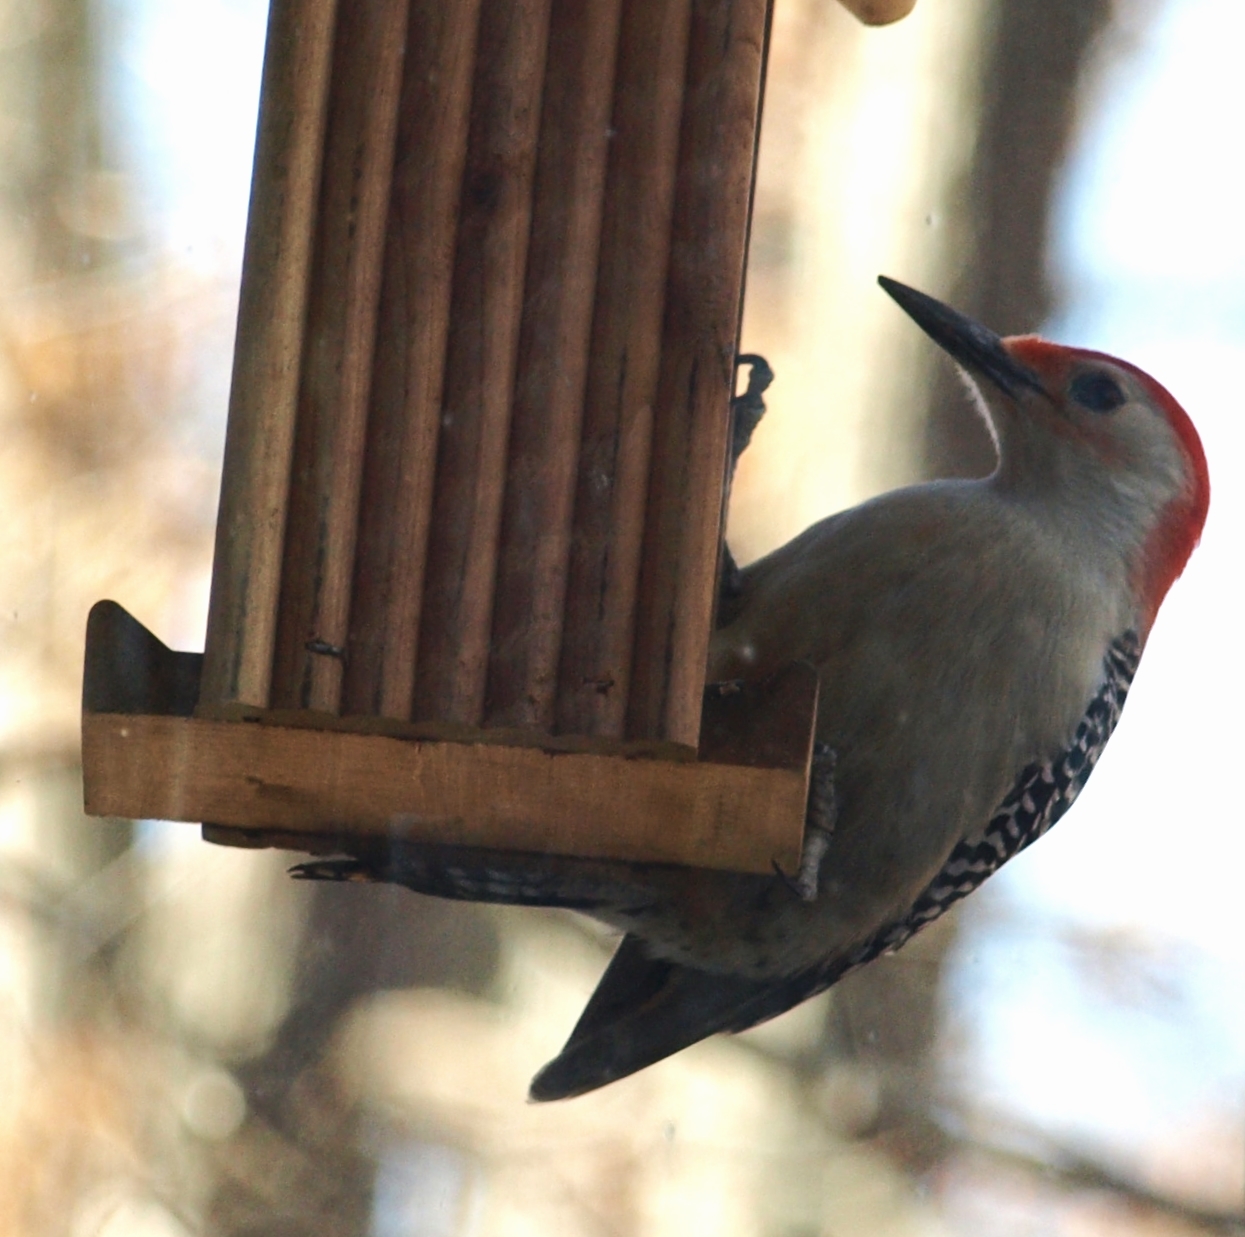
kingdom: Animalia
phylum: Chordata
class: Aves
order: Piciformes
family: Picidae
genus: Melanerpes
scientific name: Melanerpes carolinus
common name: Red-bellied woodpecker
